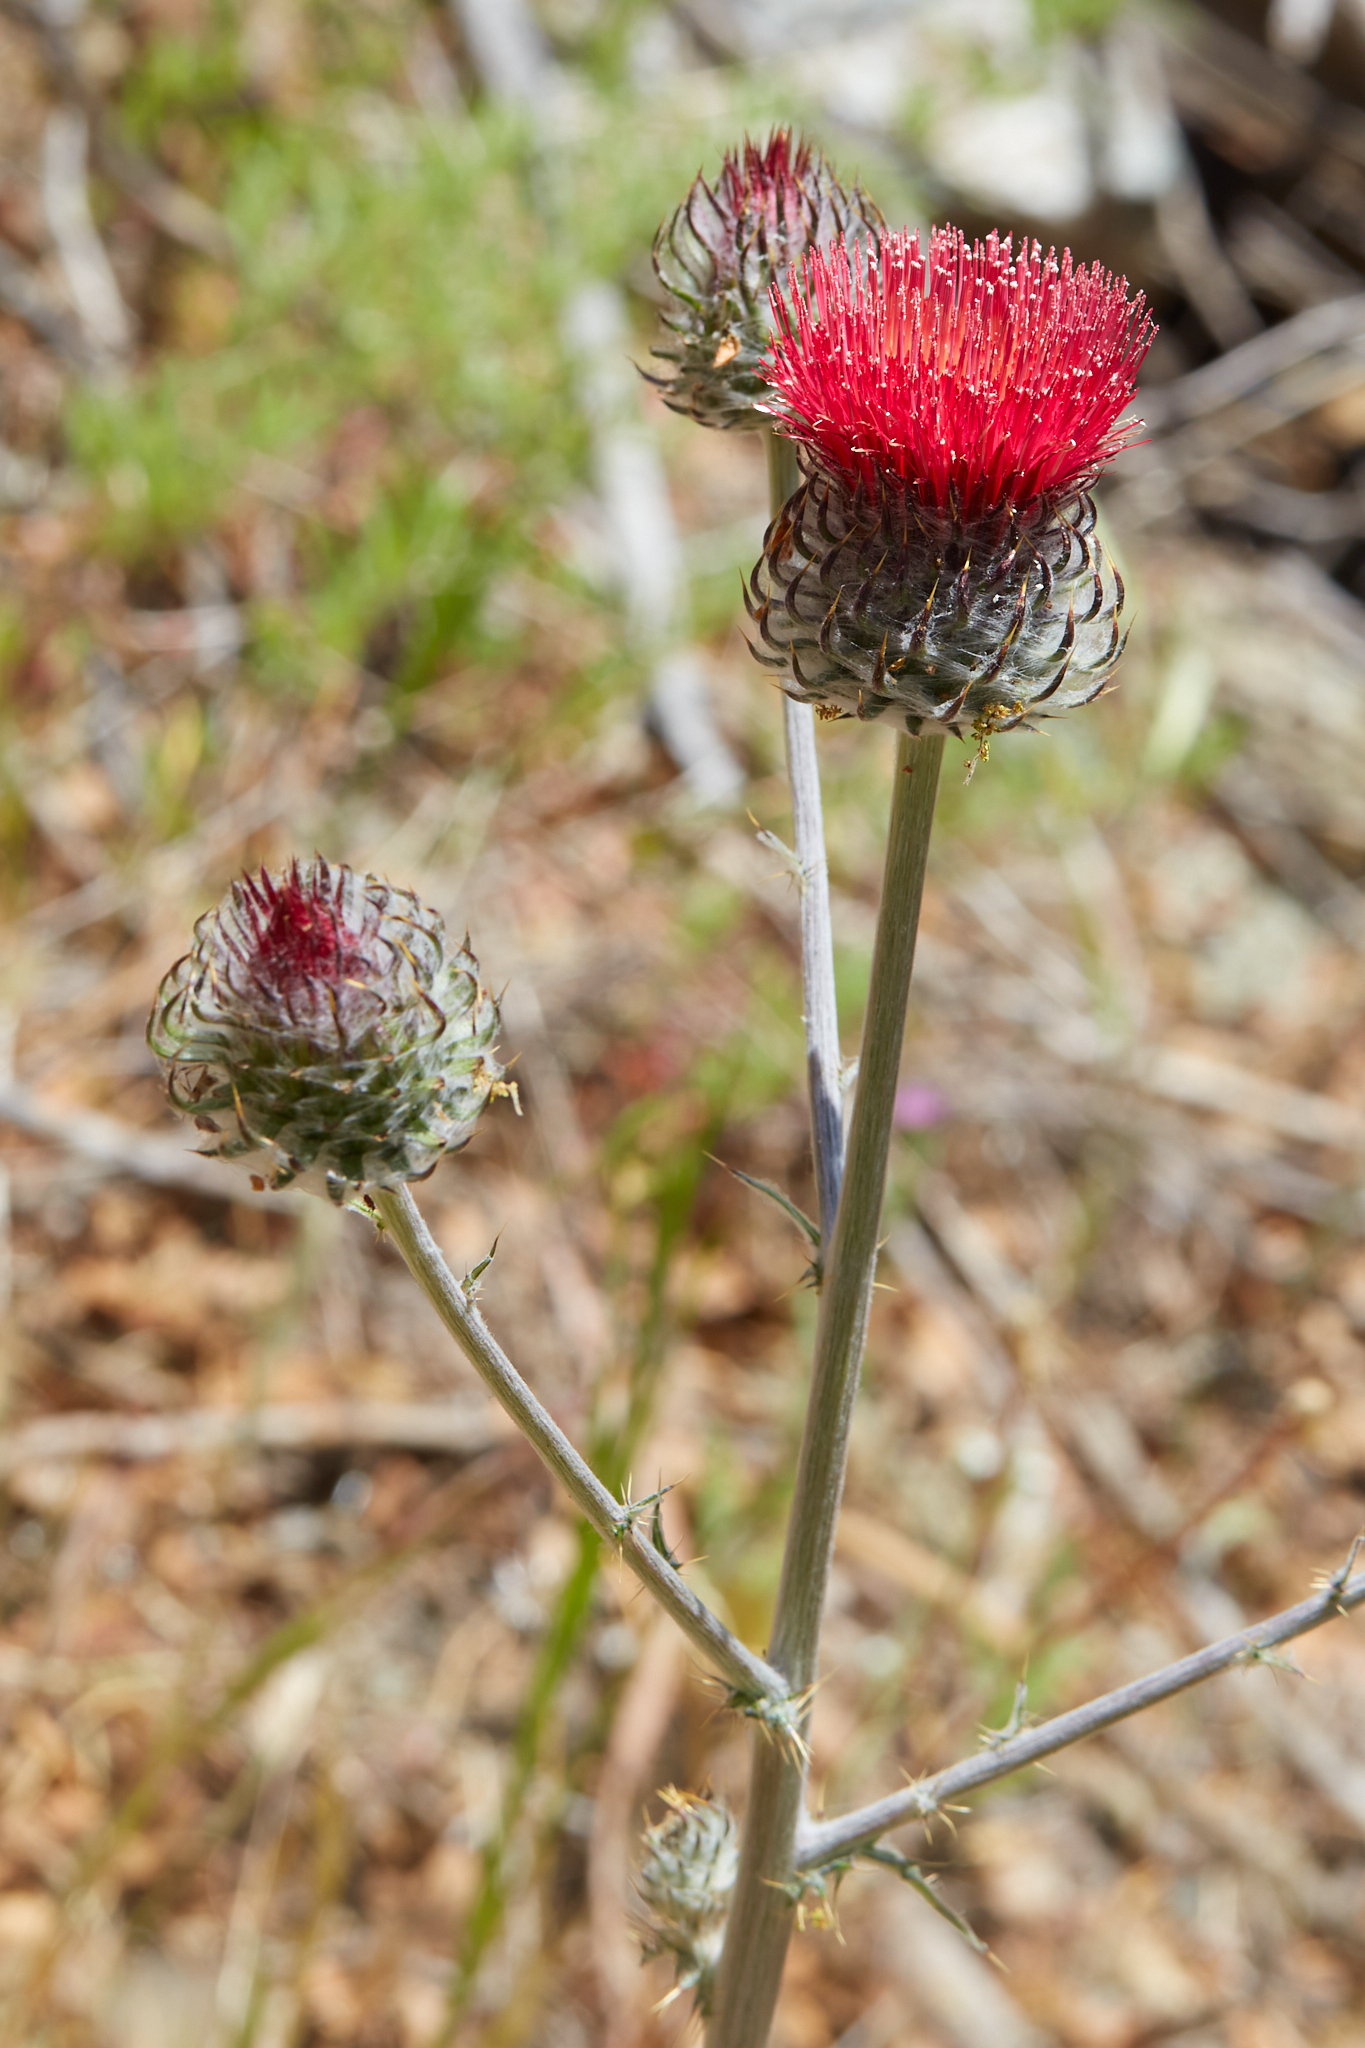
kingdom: Plantae
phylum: Tracheophyta
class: Magnoliopsida
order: Asterales
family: Asteraceae
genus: Cirsium
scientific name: Cirsium occidentale
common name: Western thistle
